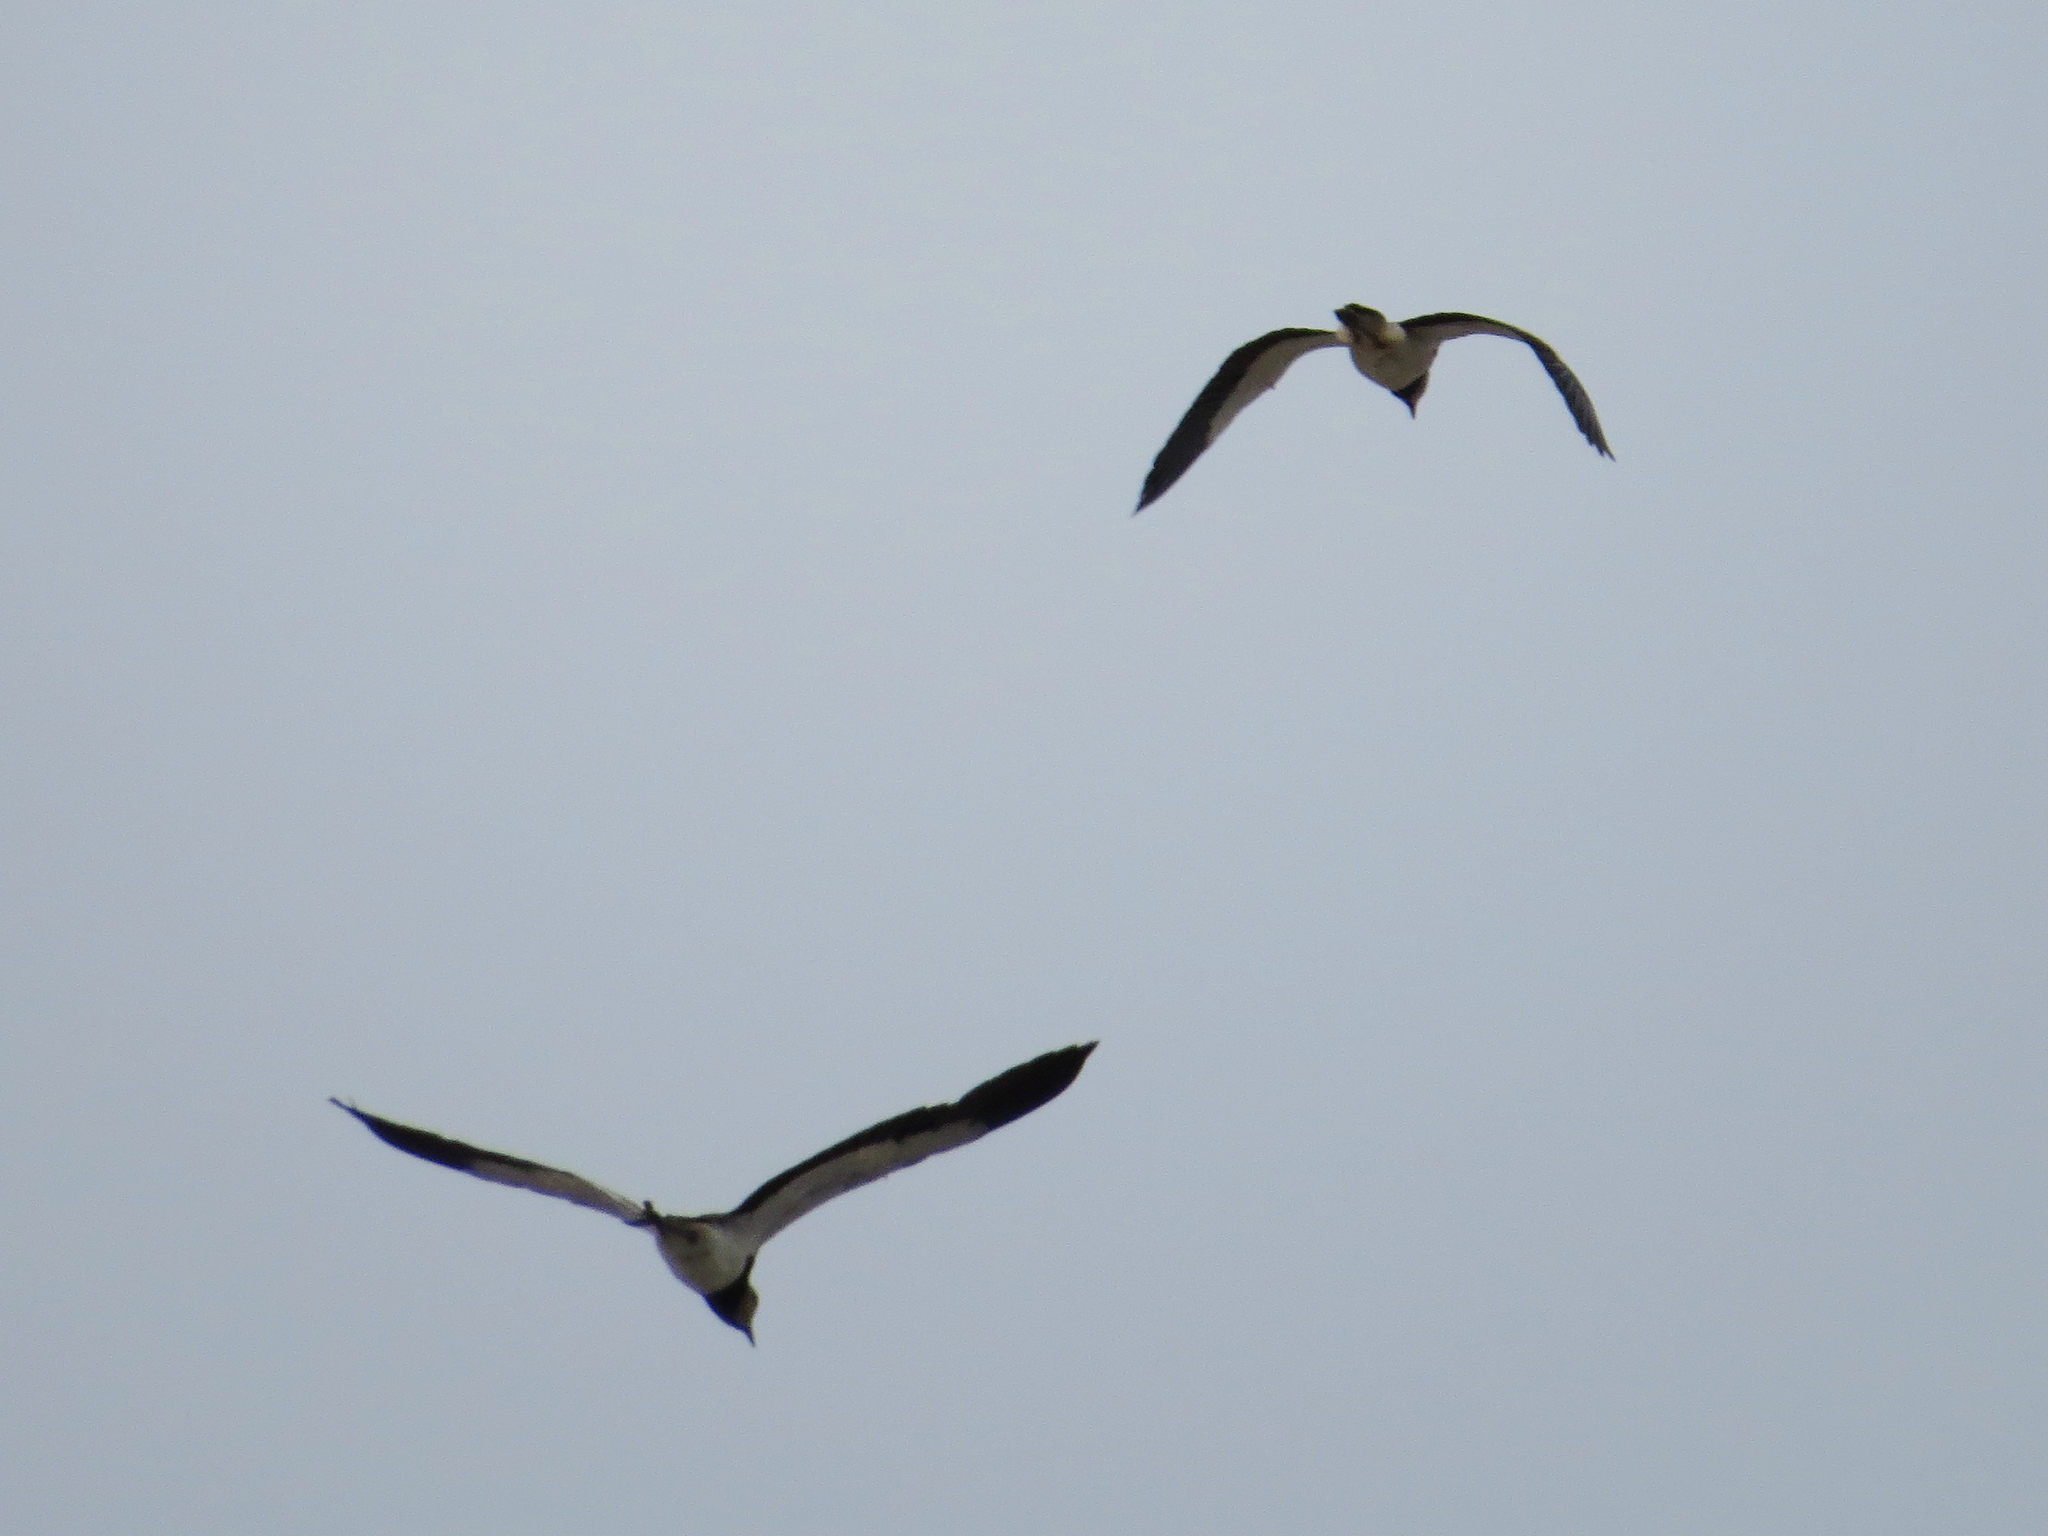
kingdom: Animalia
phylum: Chordata
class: Aves
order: Charadriiformes
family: Charadriidae
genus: Vanellus
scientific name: Vanellus chilensis
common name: Southern lapwing
